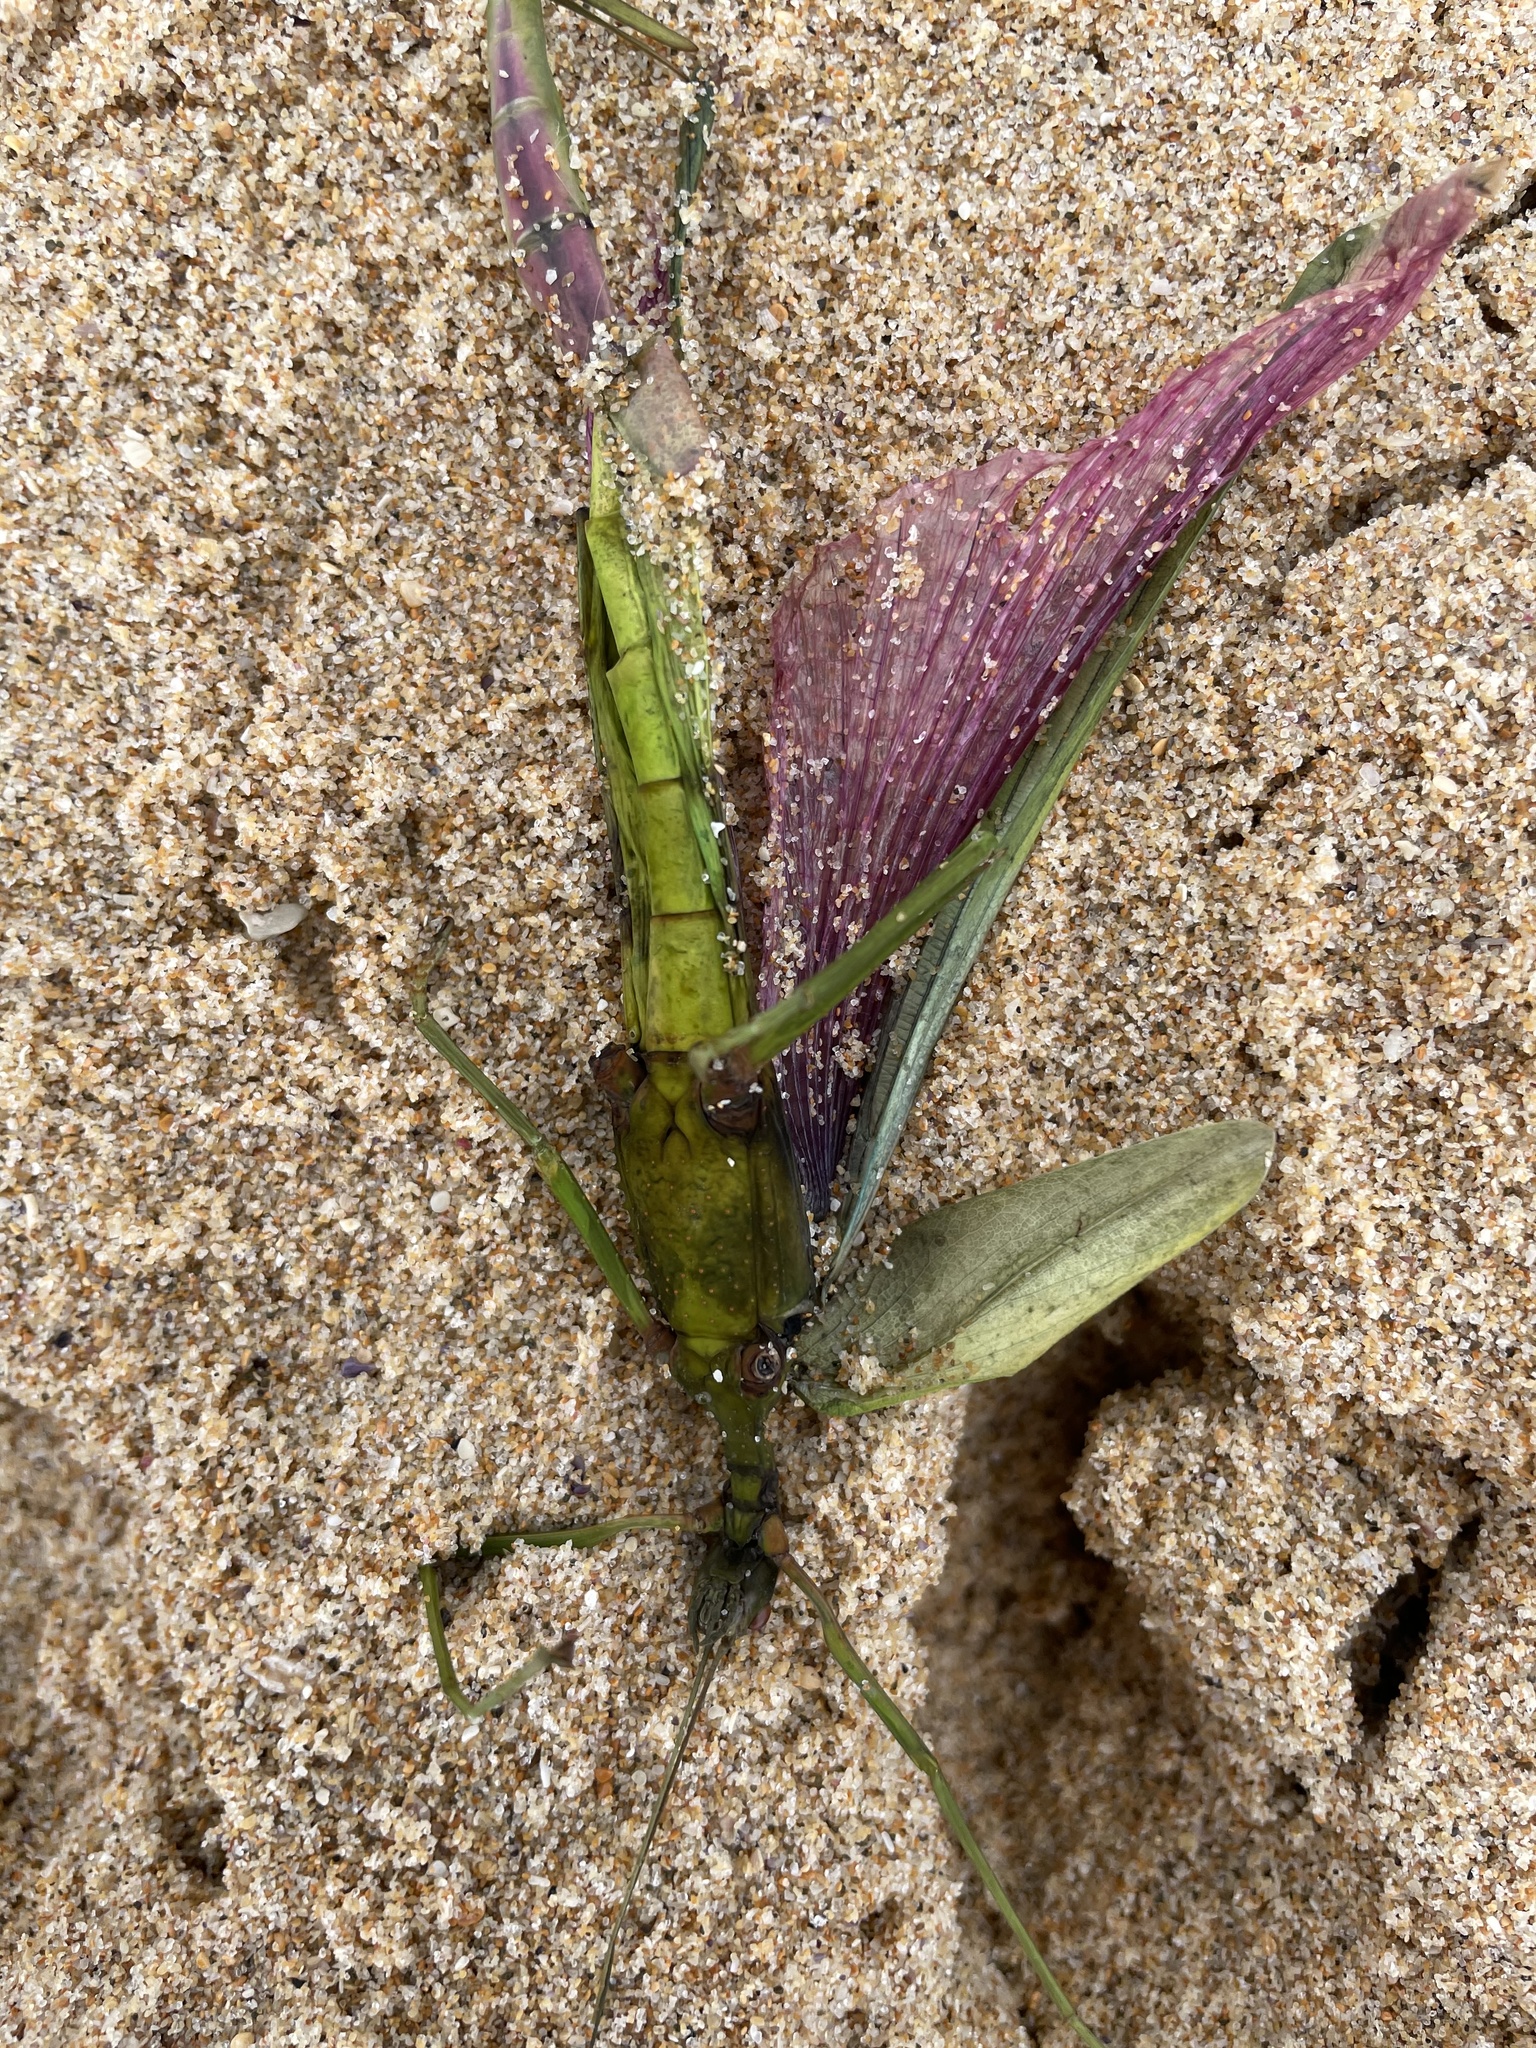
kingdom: Animalia
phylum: Arthropoda
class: Insecta
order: Phasmida
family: Phasmatidae
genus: Didymuria
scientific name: Didymuria violescens
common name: Spur-legged stick-insect
